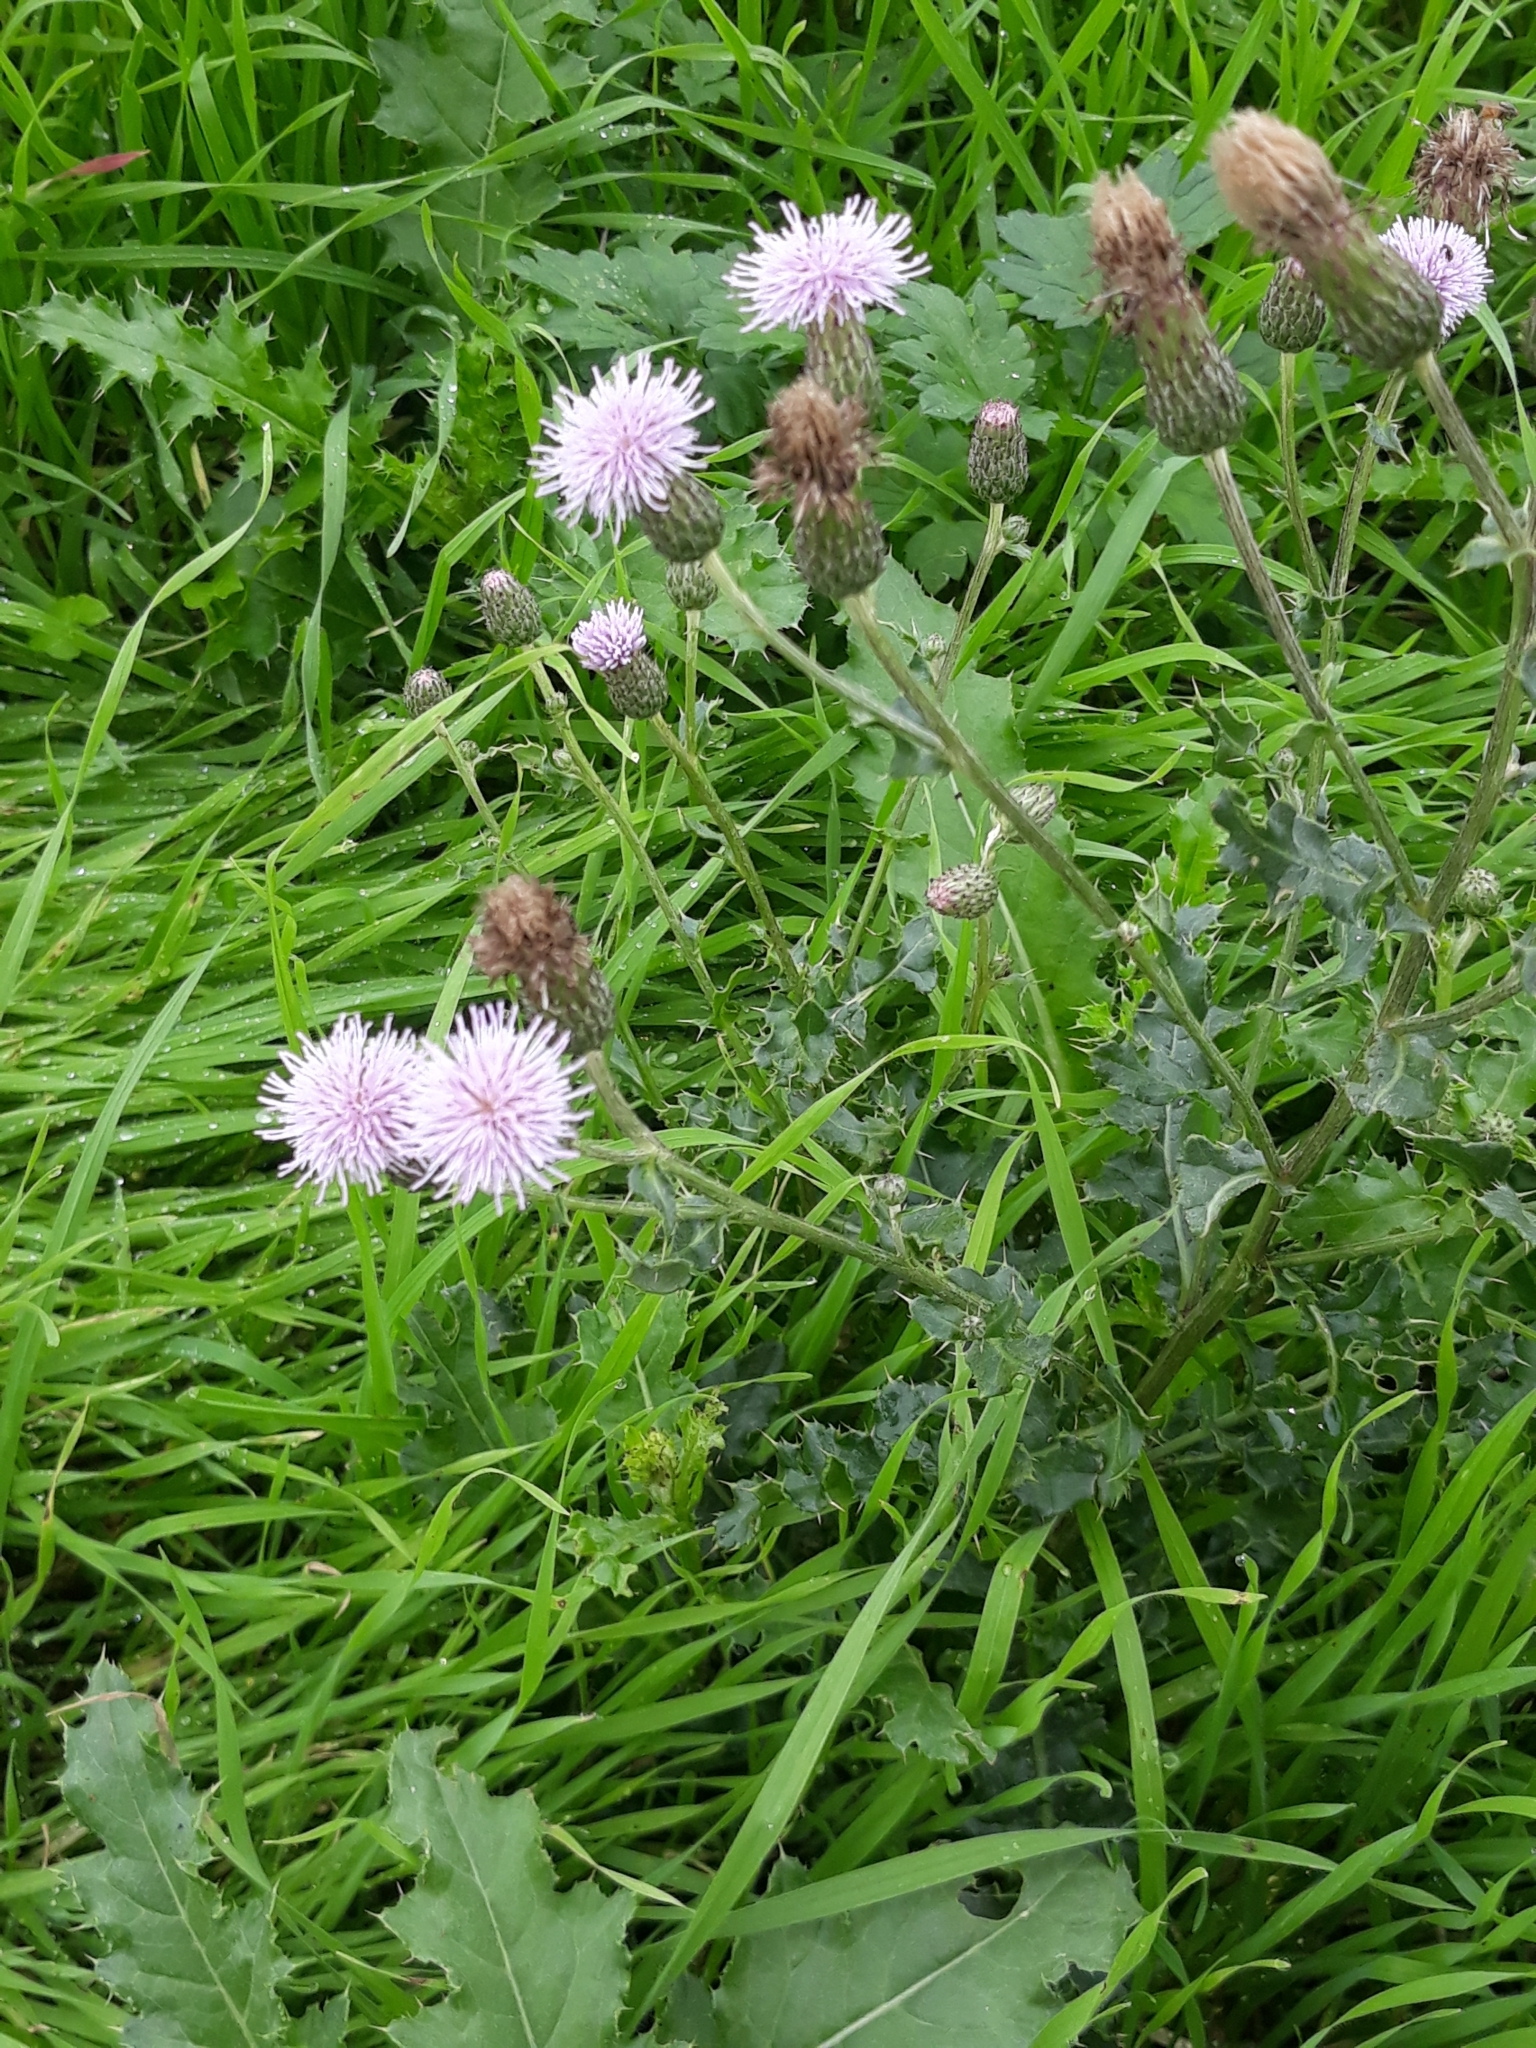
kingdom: Plantae
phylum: Tracheophyta
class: Magnoliopsida
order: Asterales
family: Asteraceae
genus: Cirsium
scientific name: Cirsium arvense
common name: Creeping thistle
